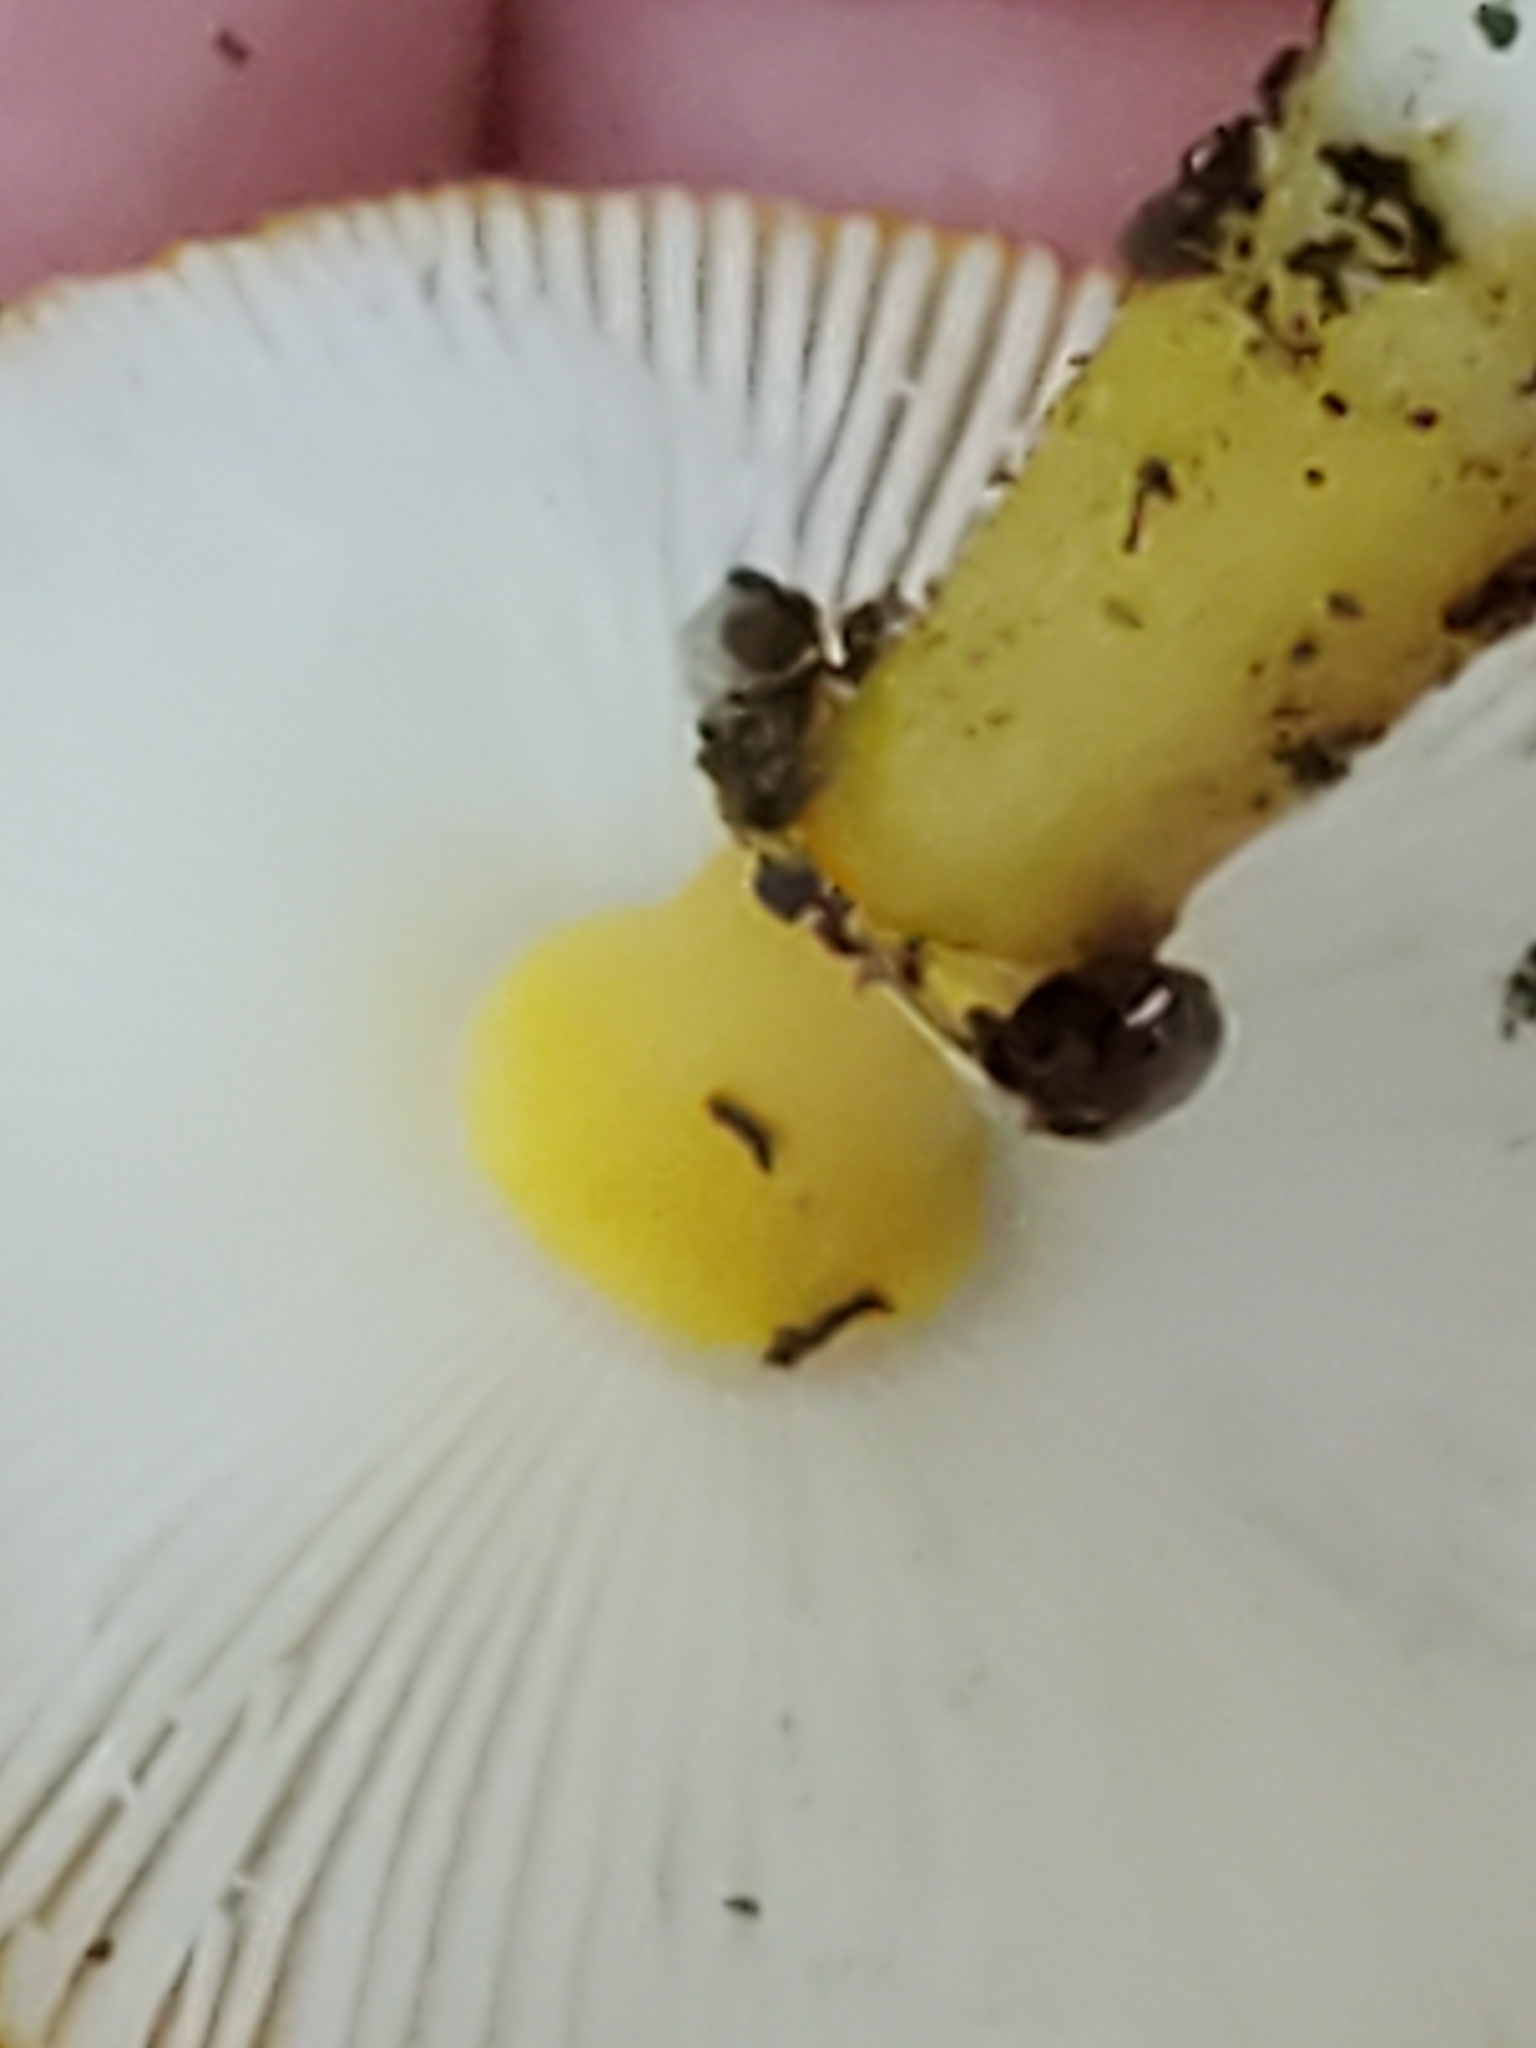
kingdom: Fungi
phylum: Basidiomycota
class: Agaricomycetes
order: Agaricales
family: Amanitaceae
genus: Amanita
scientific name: Amanita flavoconia
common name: Yellow patches
